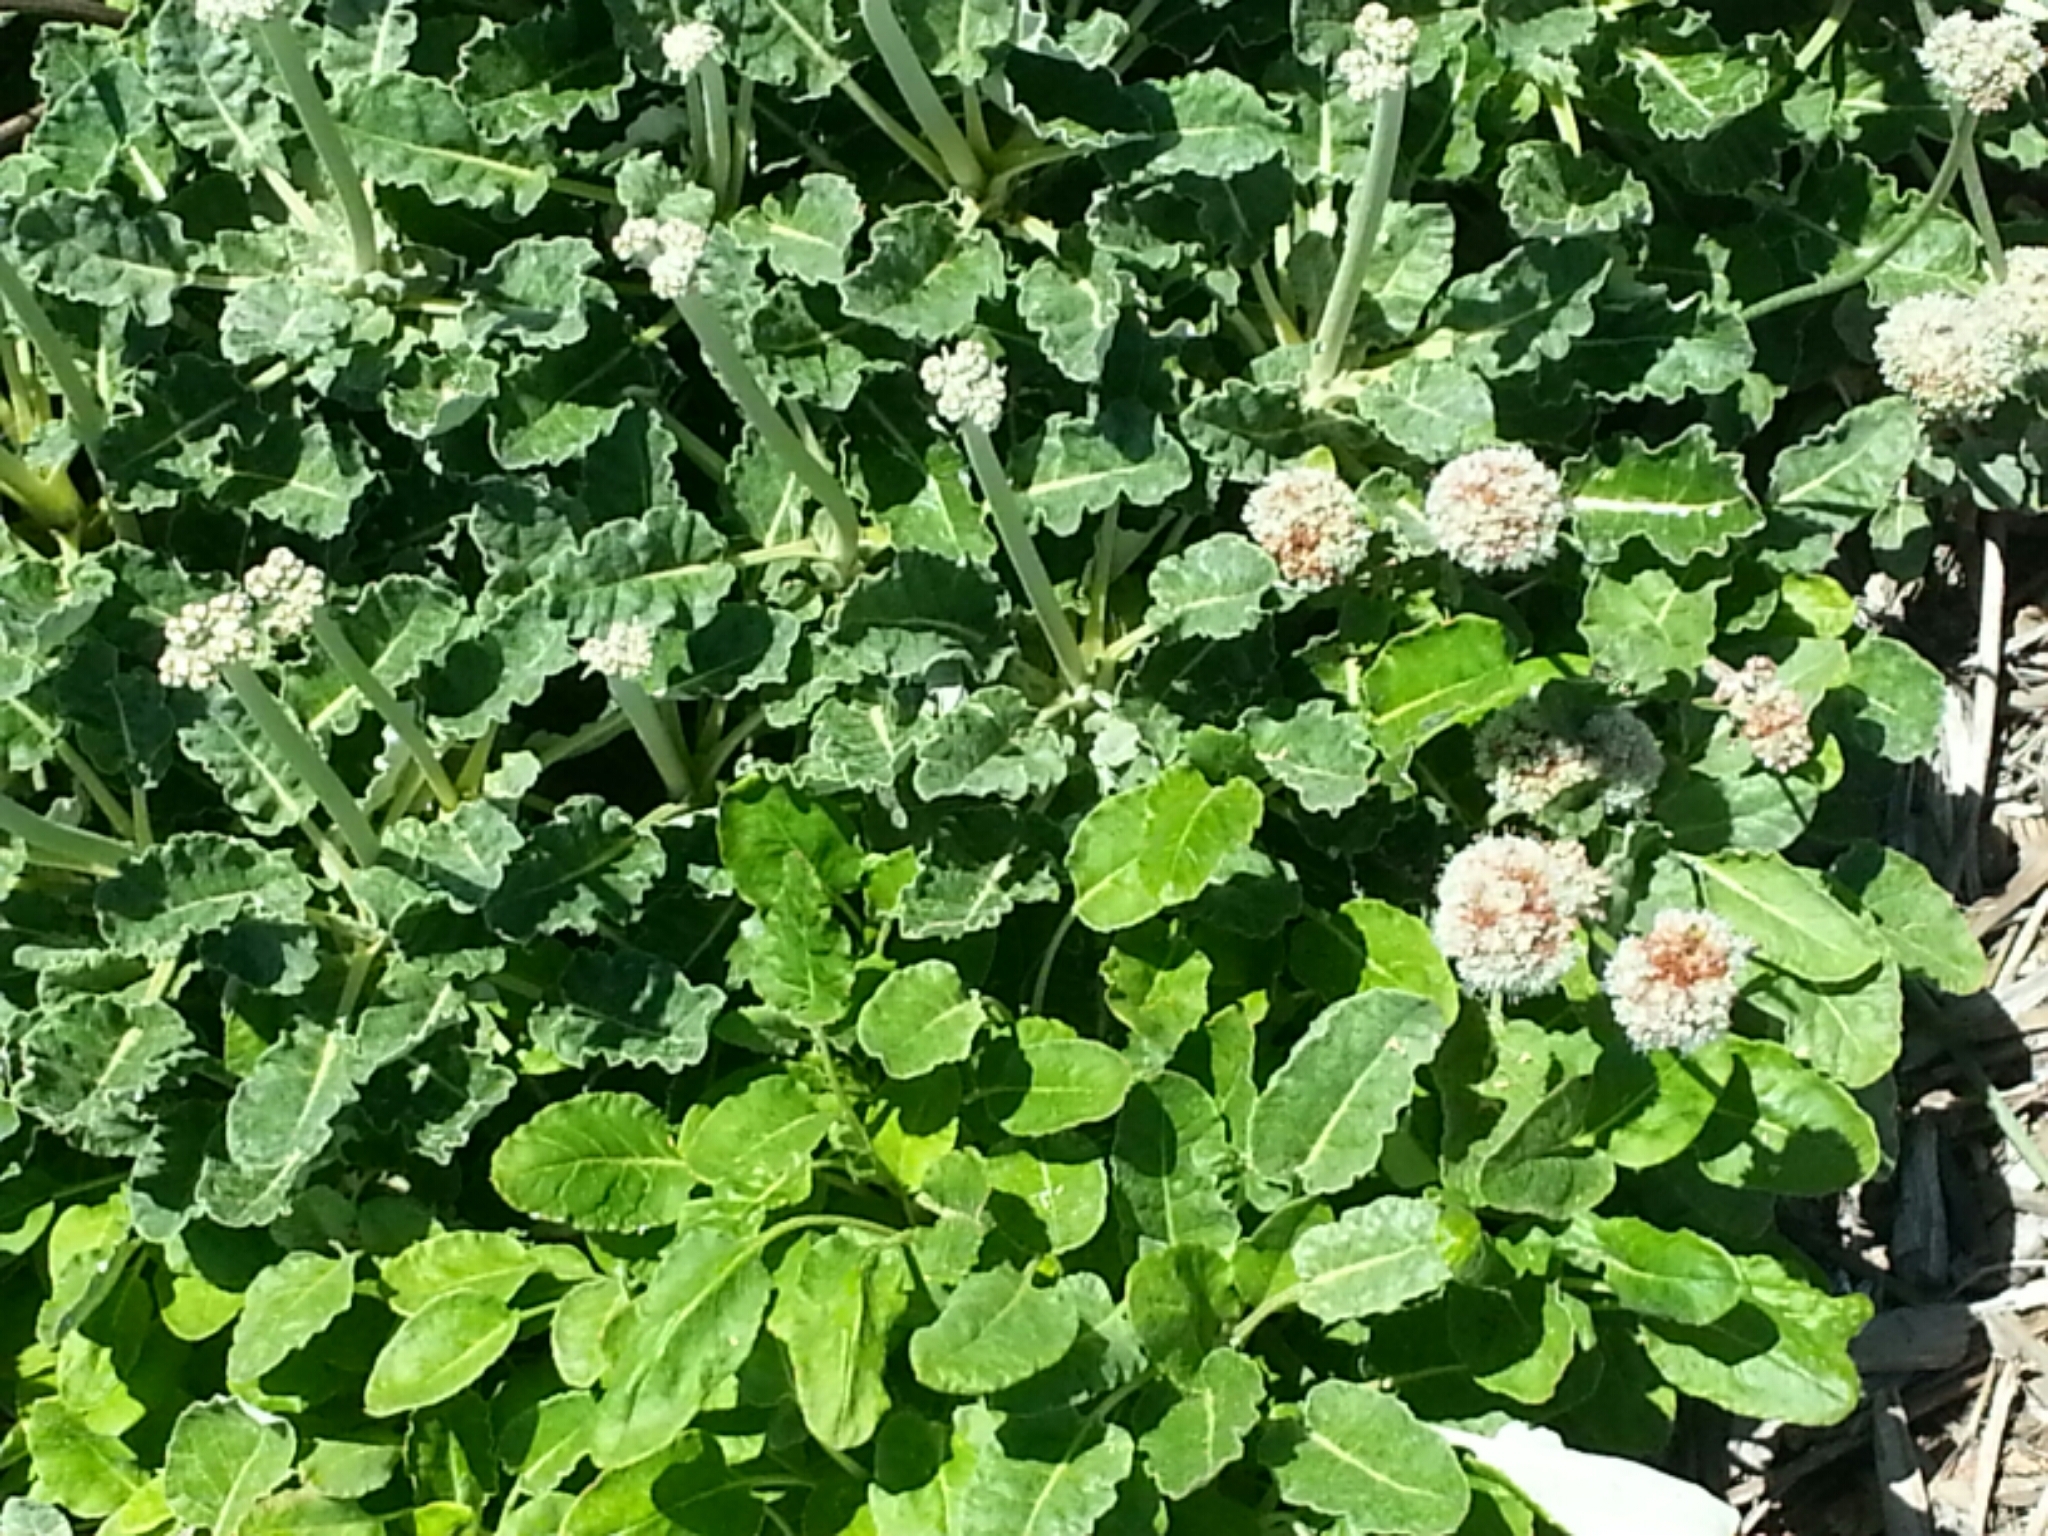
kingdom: Plantae
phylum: Tracheophyta
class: Magnoliopsida
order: Caryophyllales
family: Polygonaceae
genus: Eriogonum
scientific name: Eriogonum latifolium
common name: Seaside wild buckwheat
